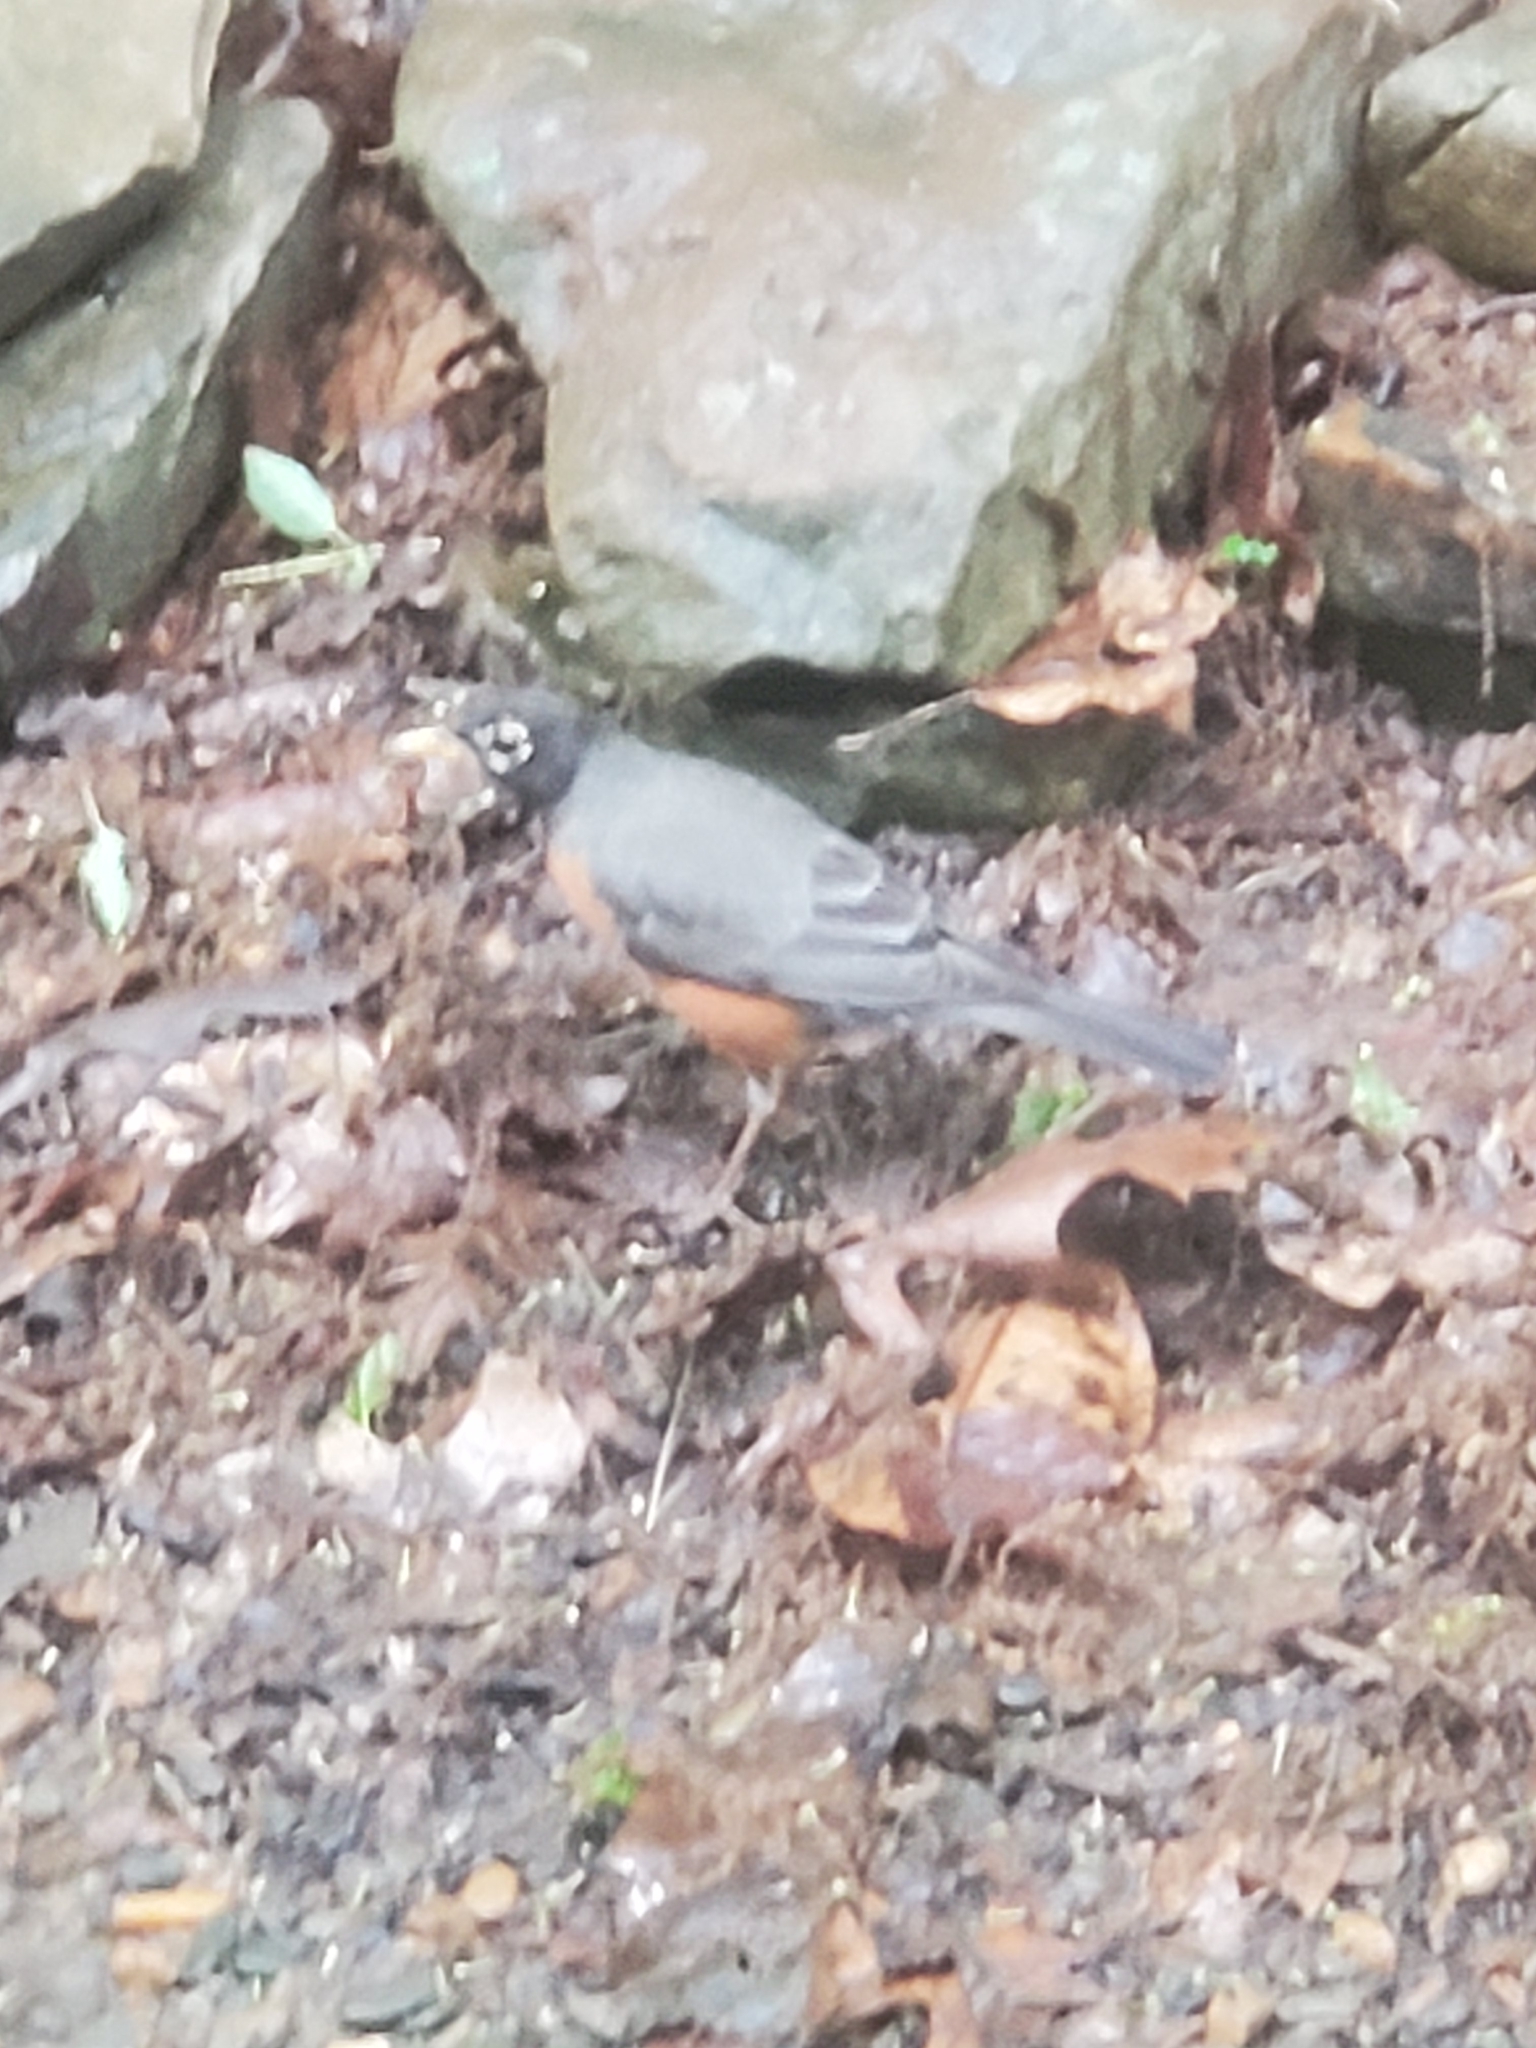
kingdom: Animalia
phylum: Chordata
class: Aves
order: Passeriformes
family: Turdidae
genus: Turdus
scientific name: Turdus migratorius
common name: American robin
